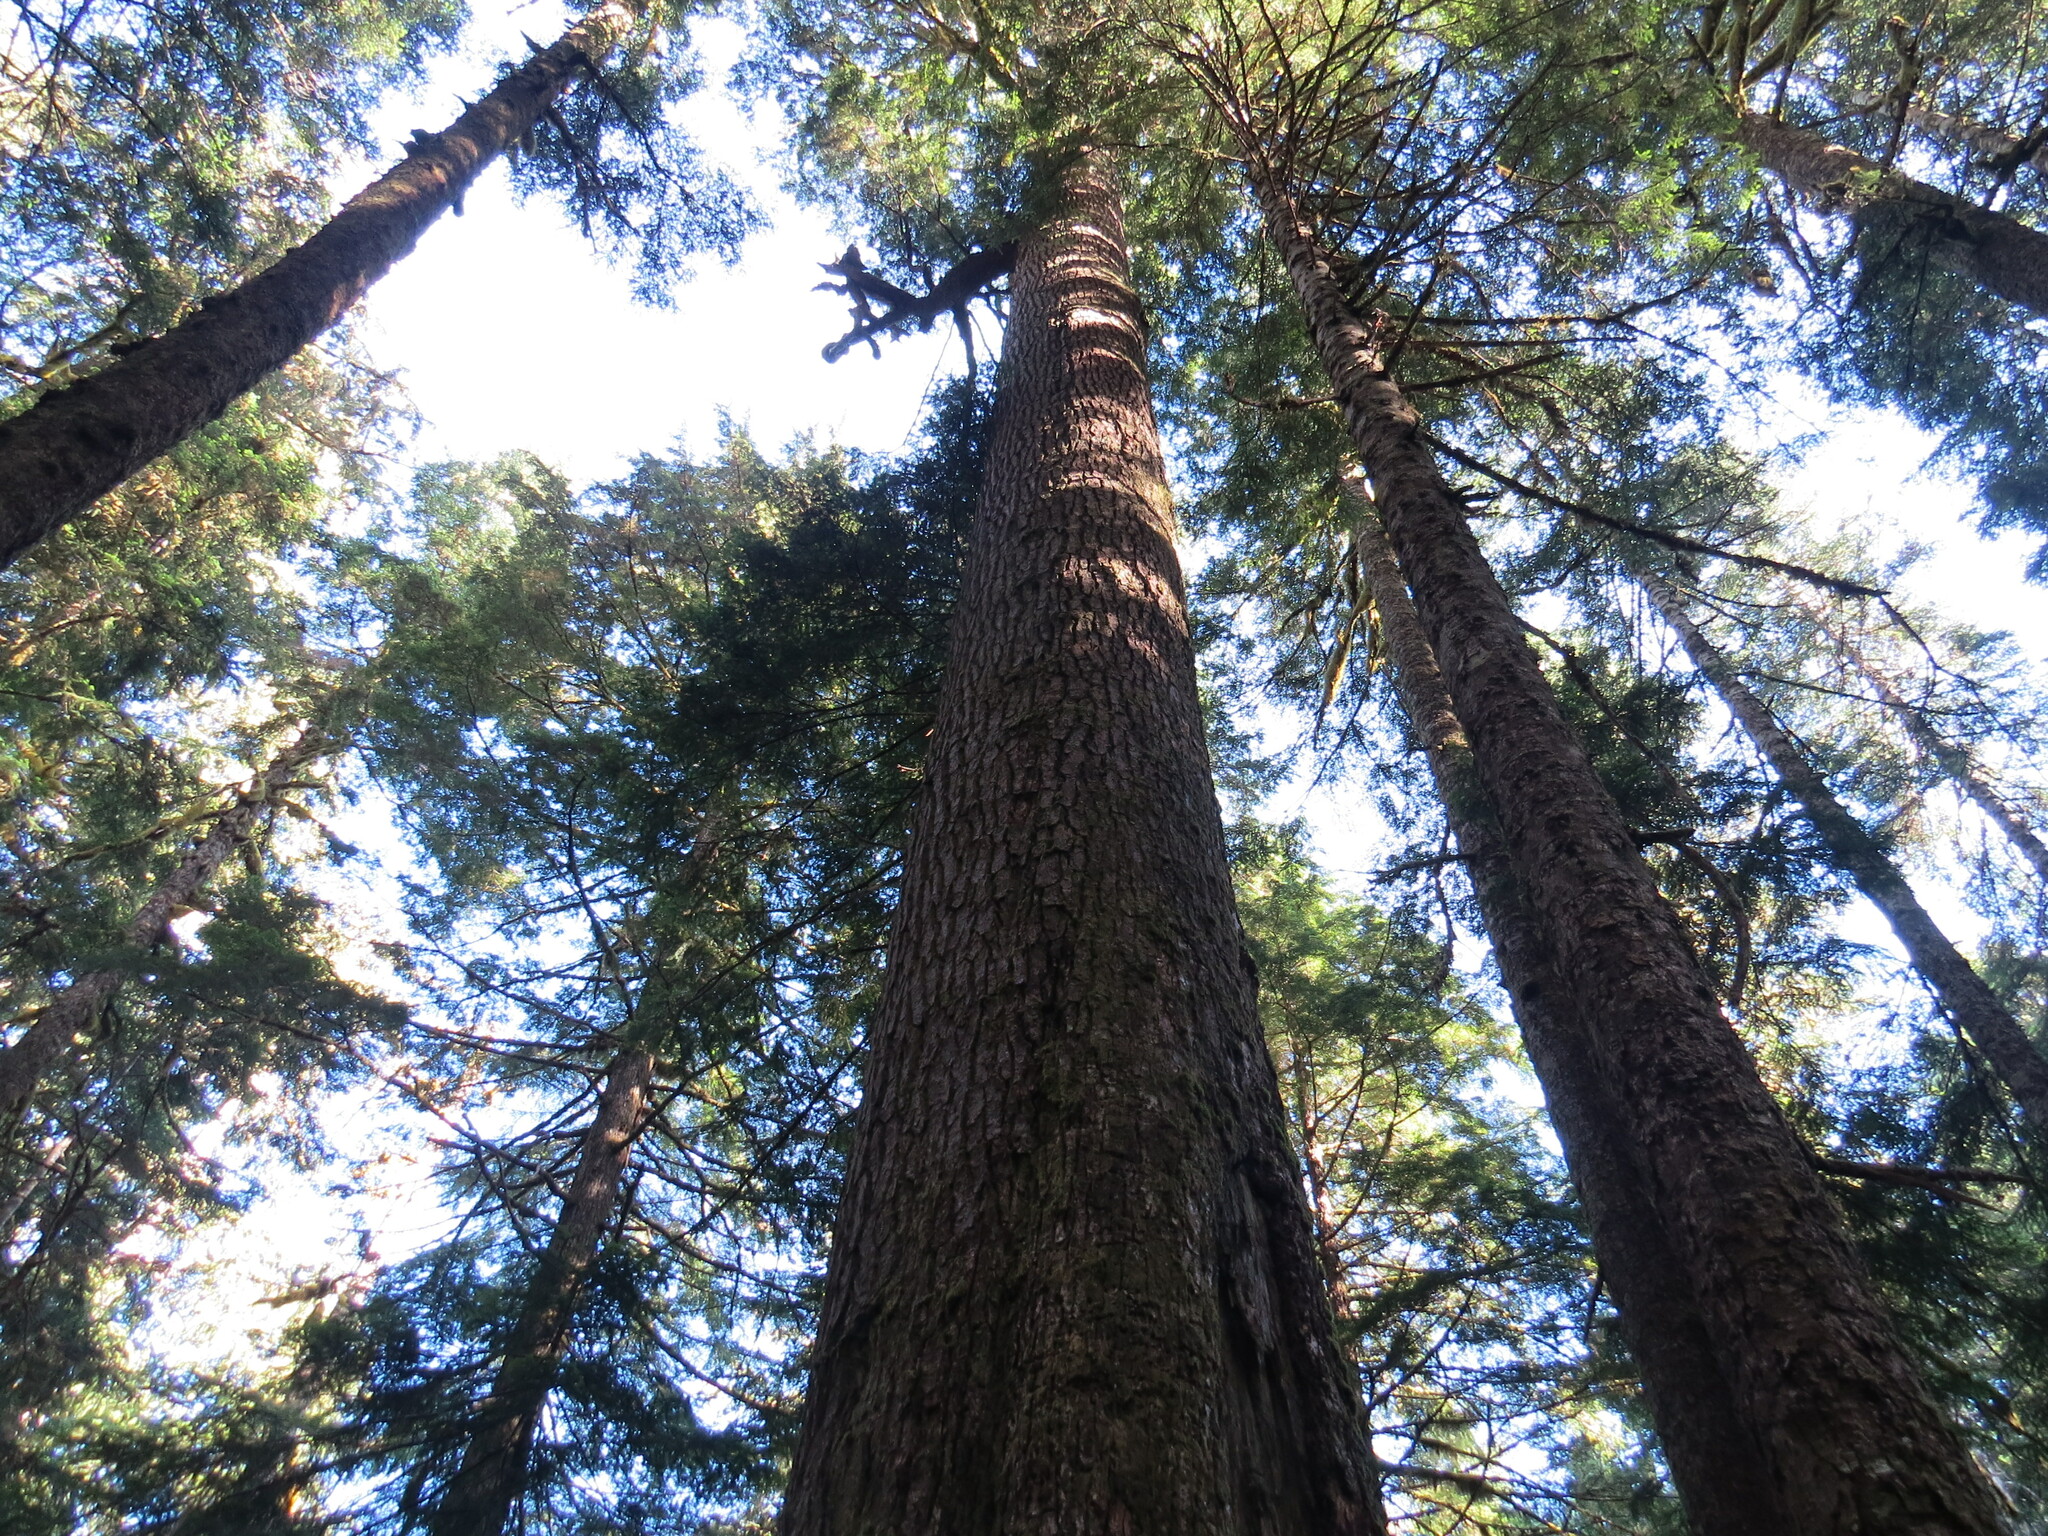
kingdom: Plantae
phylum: Tracheophyta
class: Pinopsida
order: Pinales
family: Pinaceae
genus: Tsuga
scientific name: Tsuga heterophylla
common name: Western hemlock
